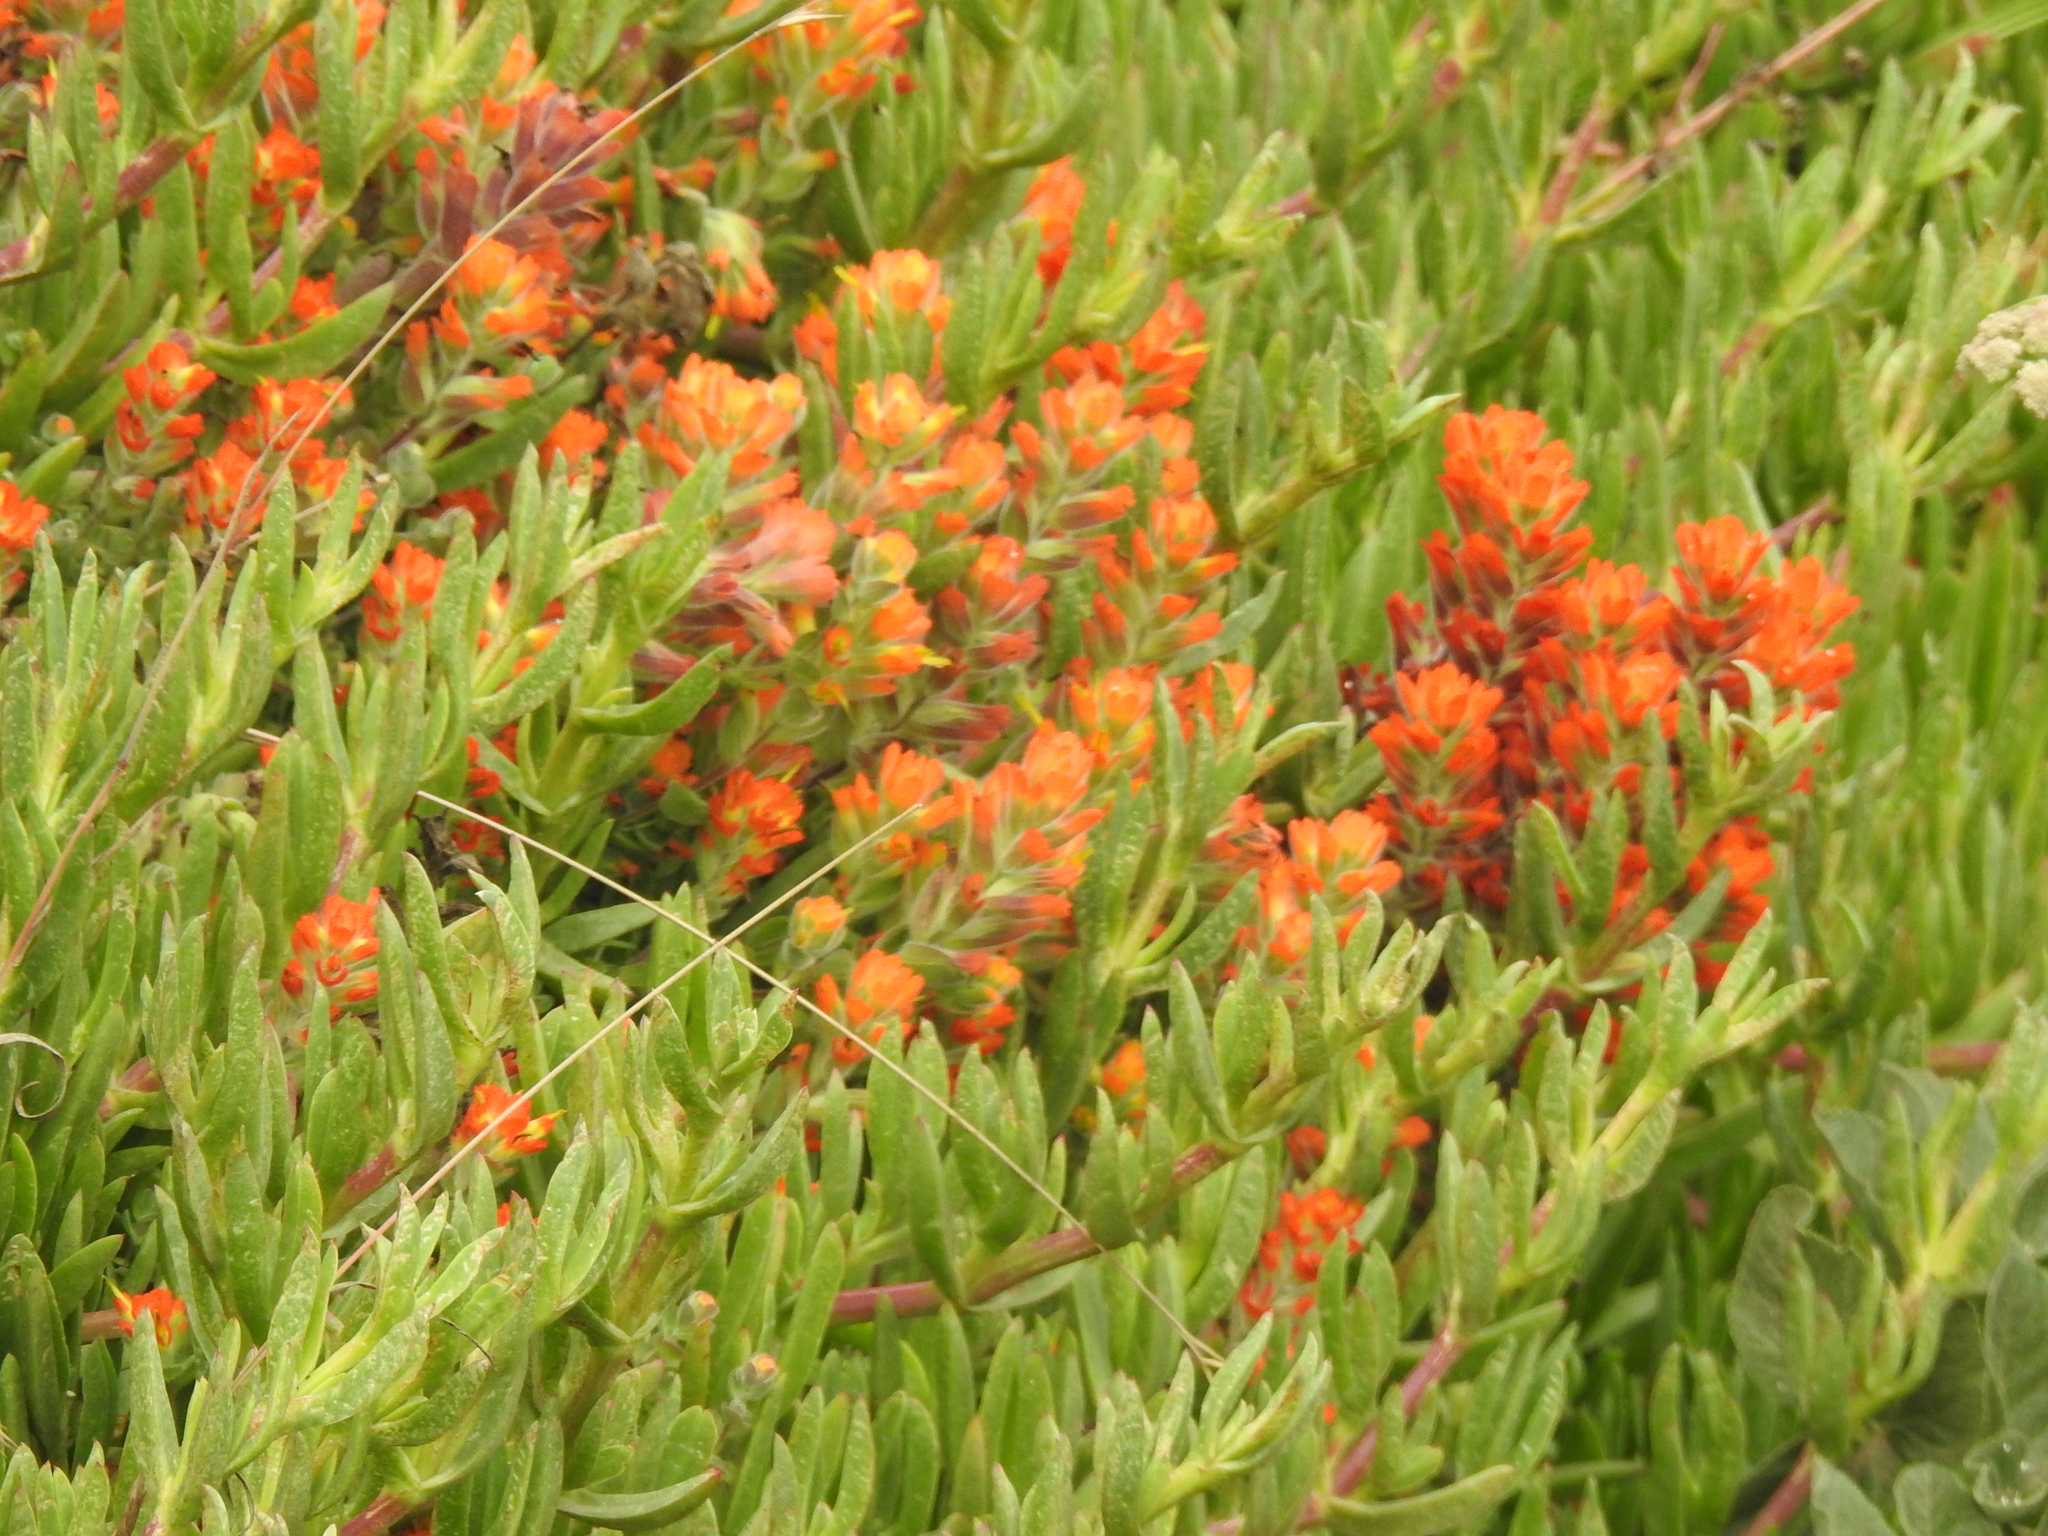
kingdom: Plantae
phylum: Tracheophyta
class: Magnoliopsida
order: Lamiales
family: Orobanchaceae
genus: Castilleja
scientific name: Castilleja mendocinensis
